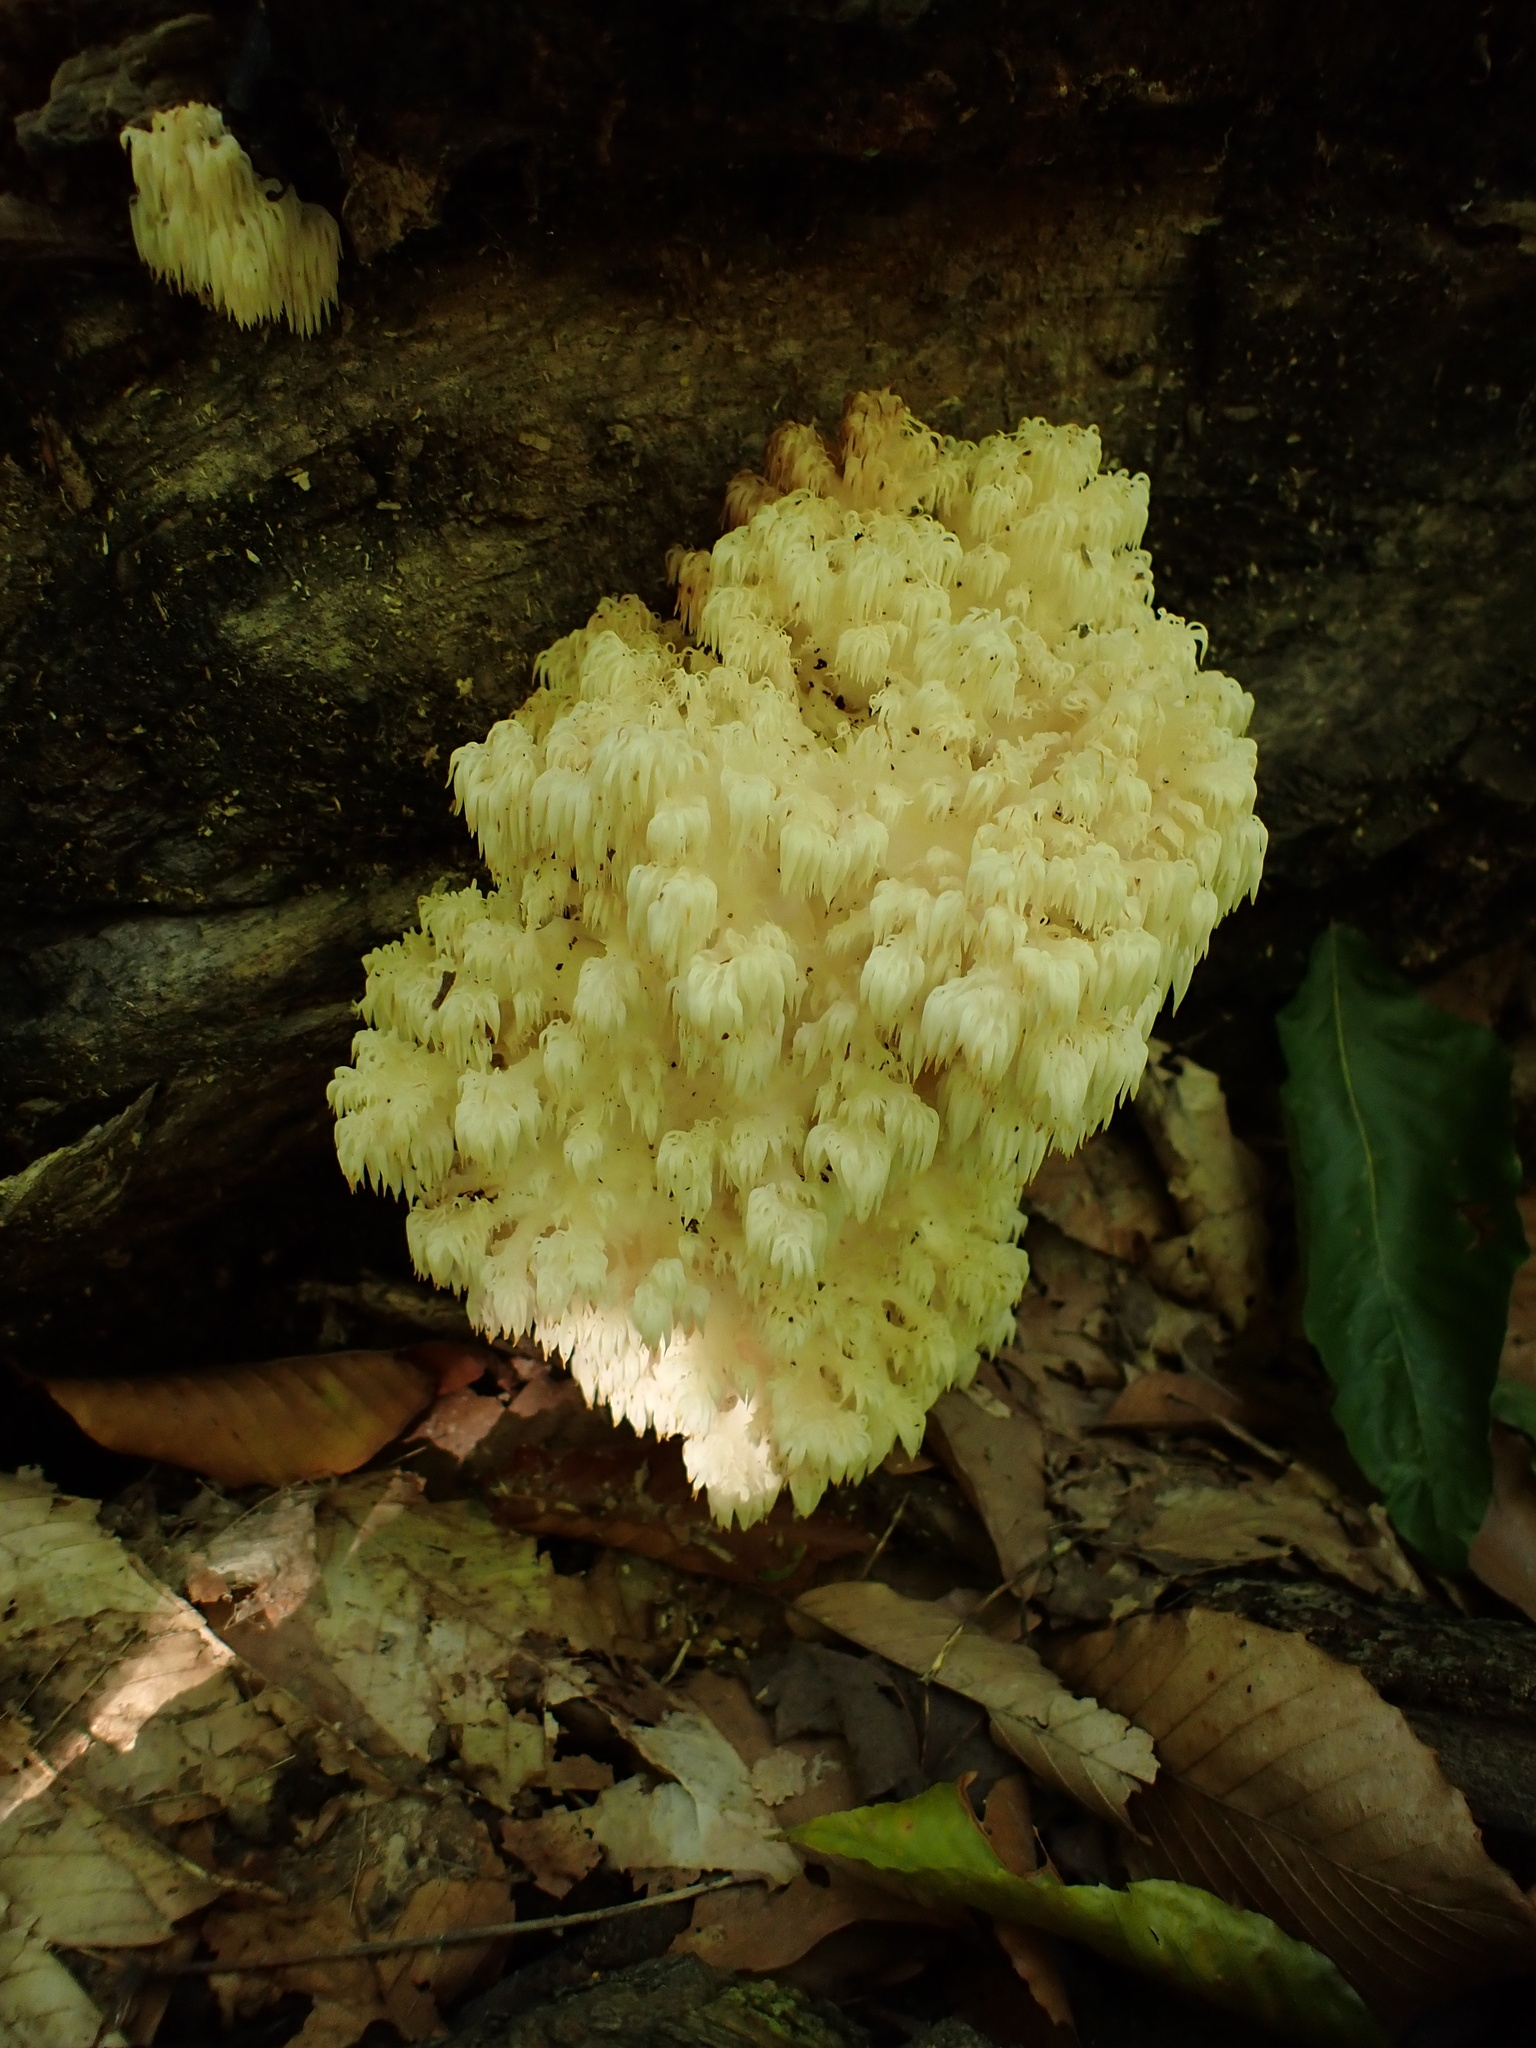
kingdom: Fungi
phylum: Basidiomycota
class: Agaricomycetes
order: Russulales
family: Hericiaceae
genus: Hericium
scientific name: Hericium americanum
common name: Bear's head tooth
